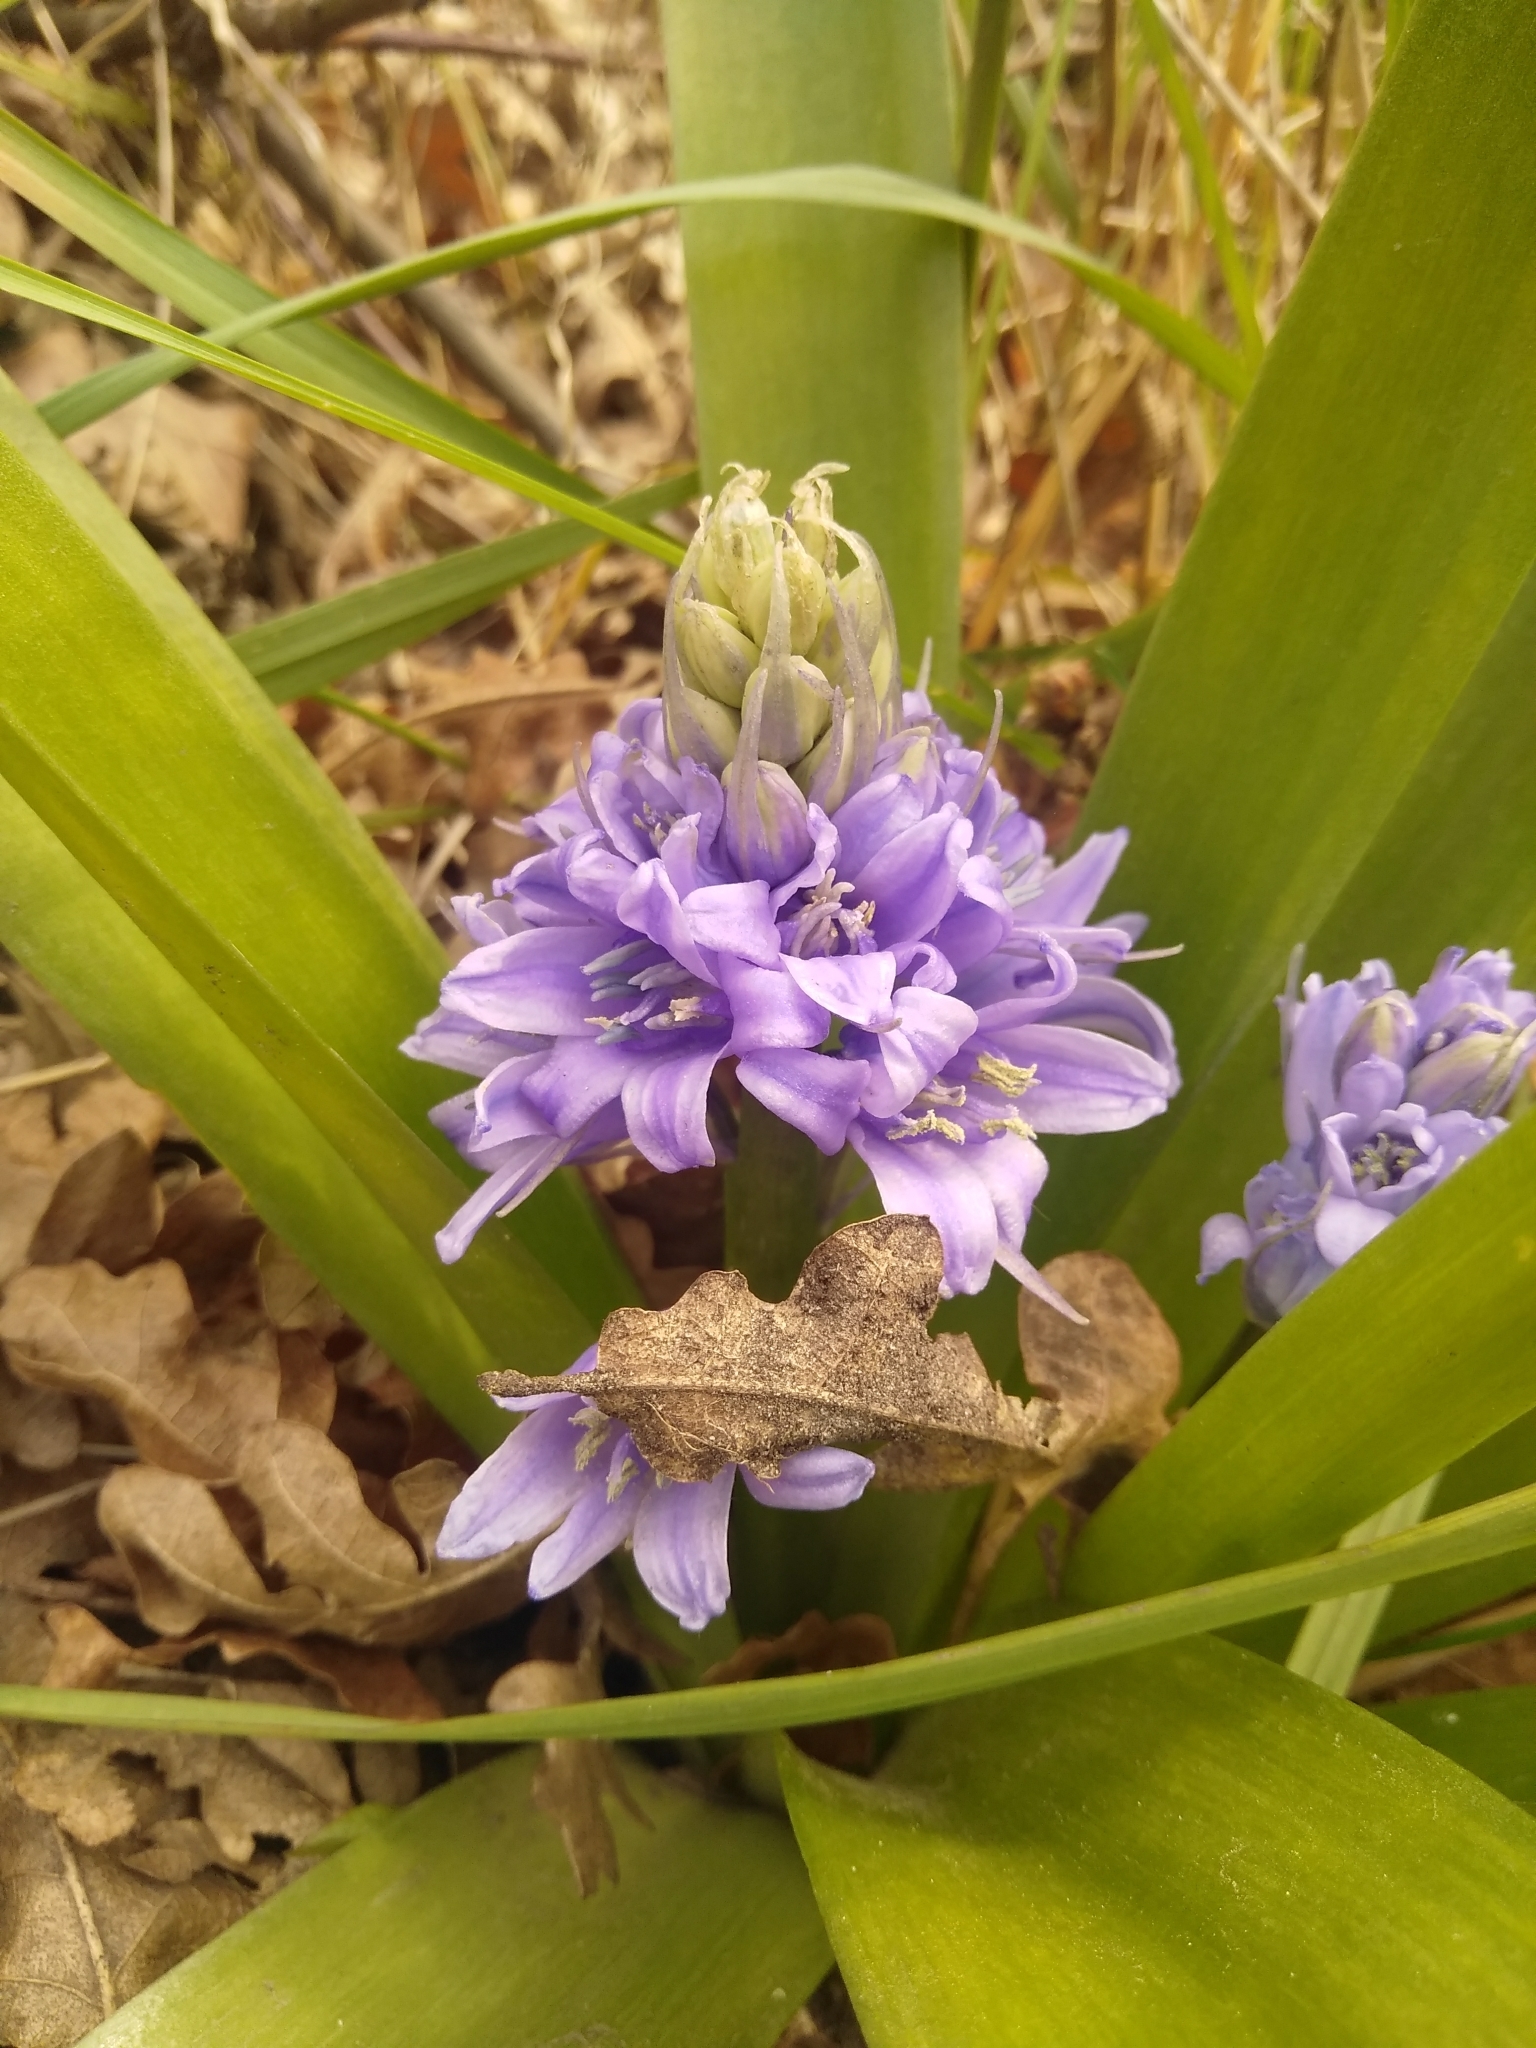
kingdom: Plantae
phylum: Tracheophyta
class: Liliopsida
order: Asparagales
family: Asparagaceae
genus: Hyacinthoides
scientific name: Hyacinthoides hispanica
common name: Spanish bluebell
